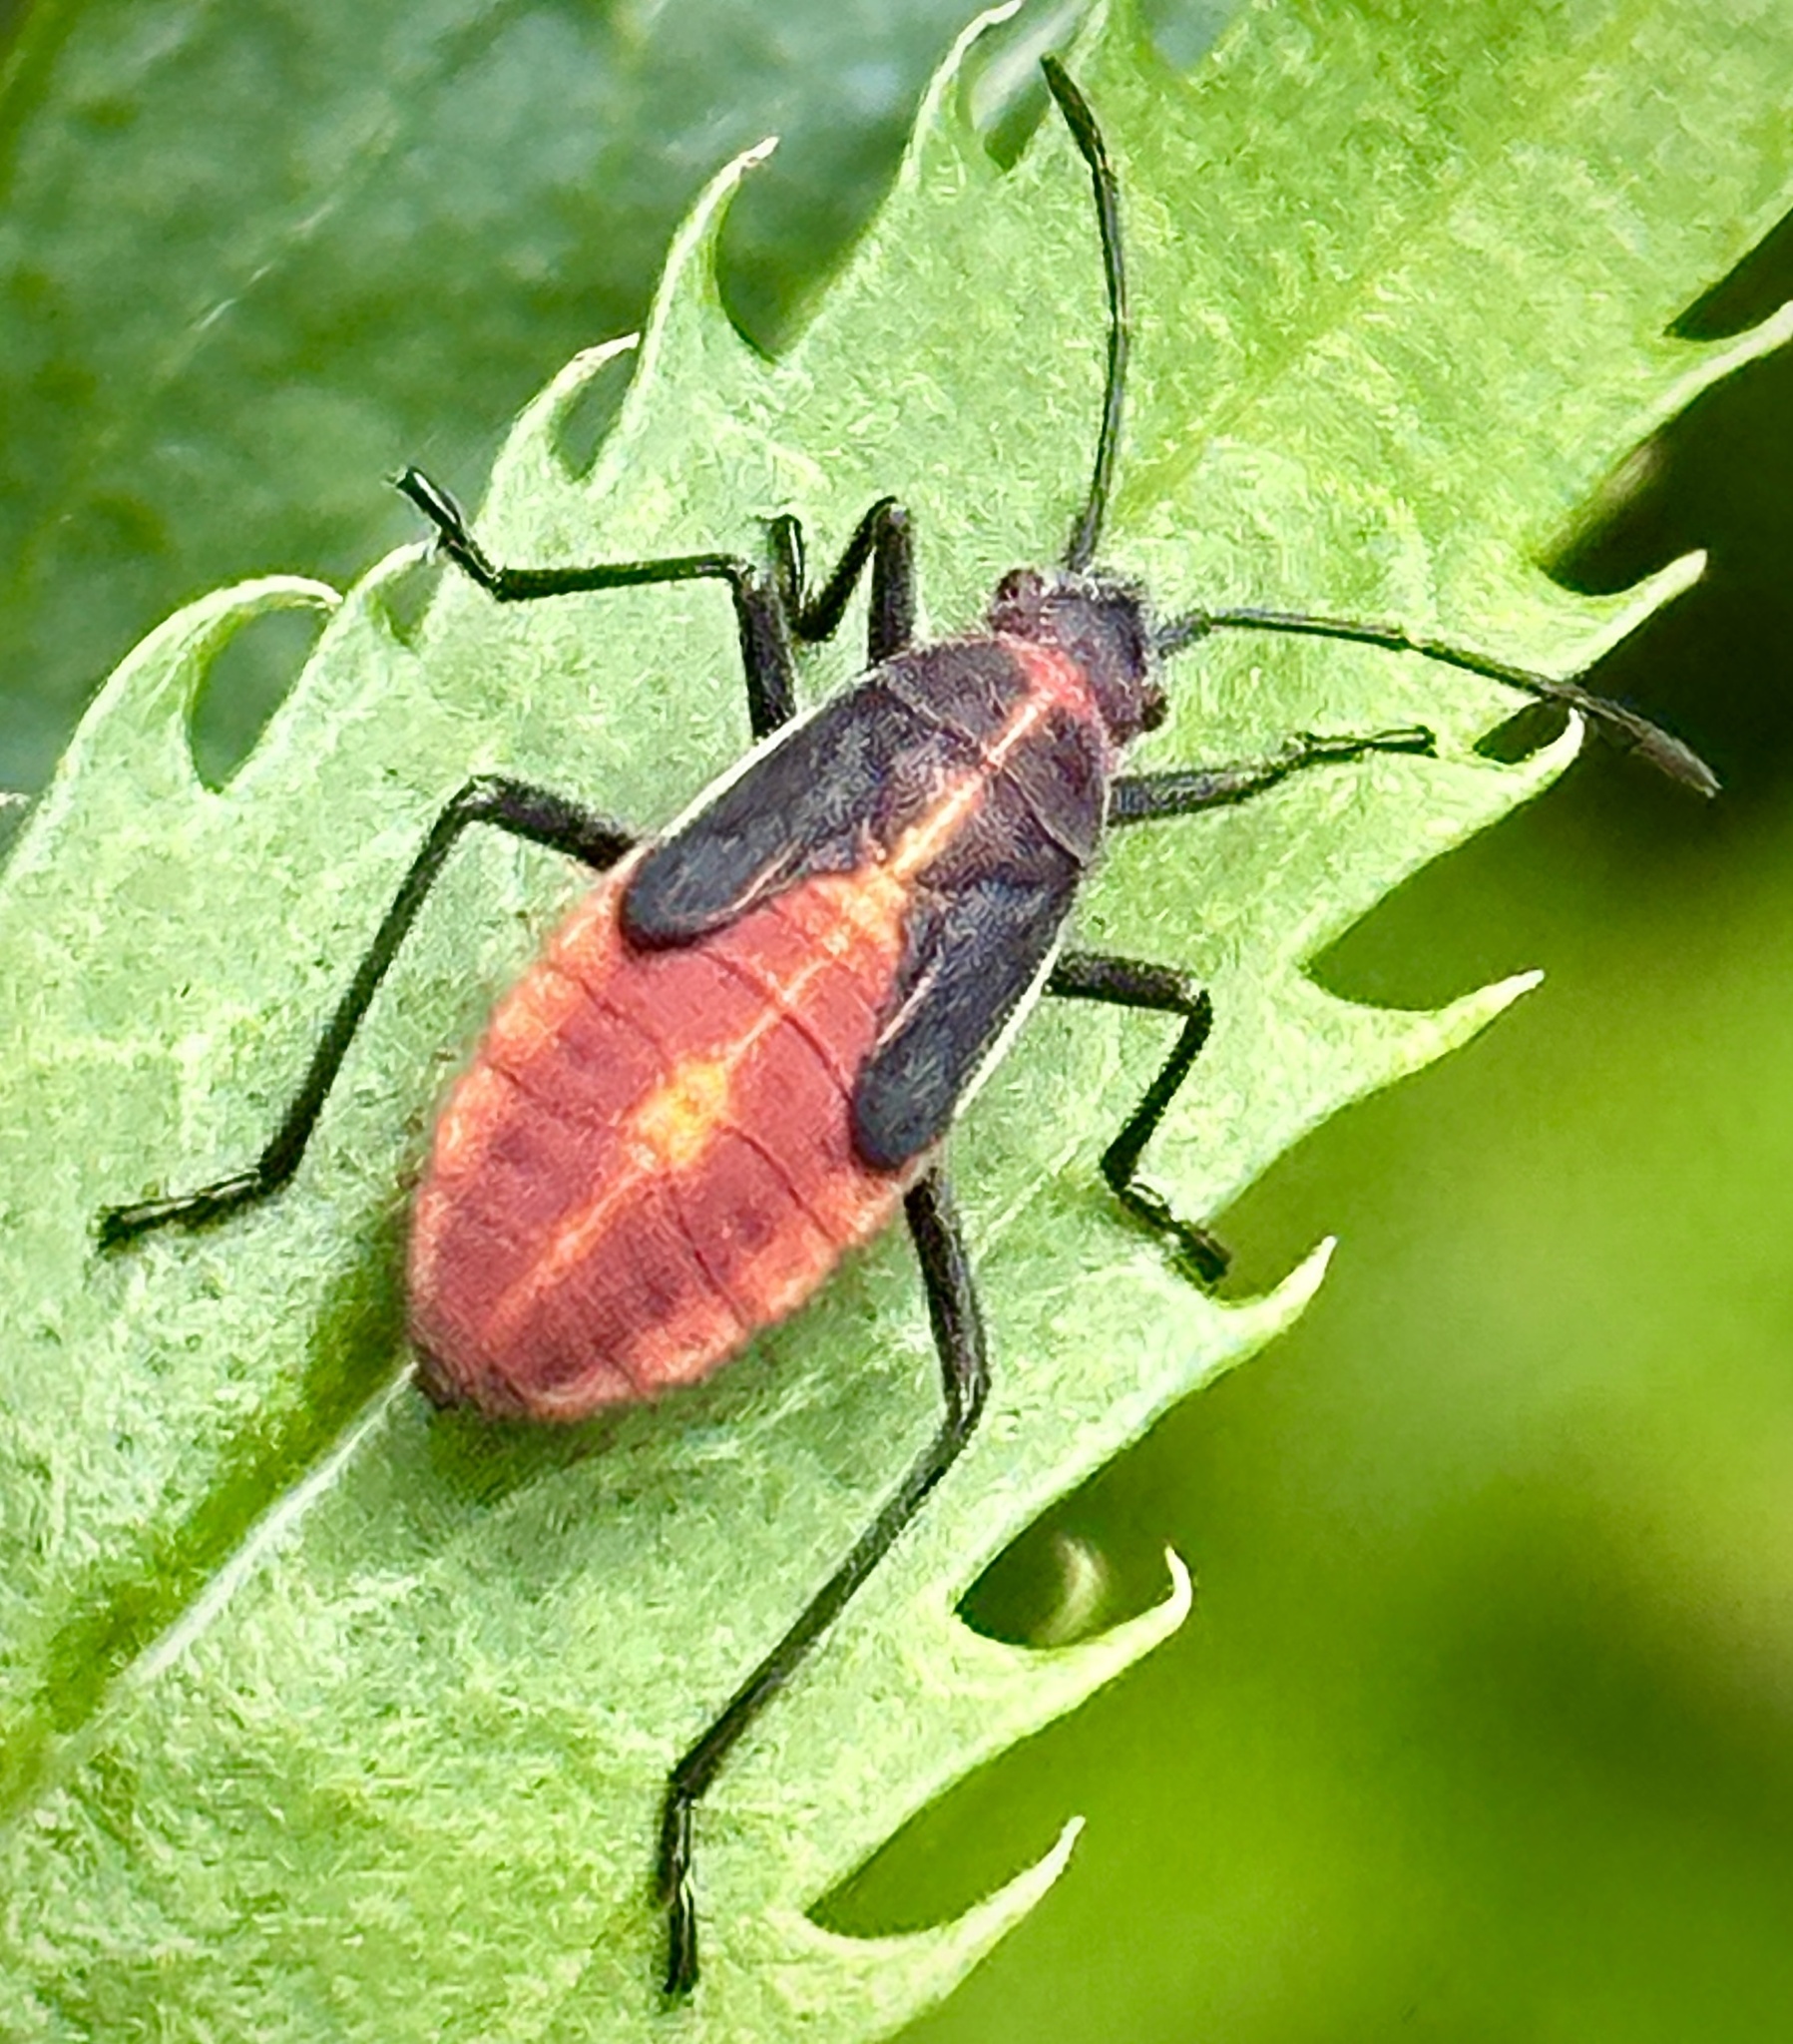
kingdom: Animalia
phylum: Arthropoda
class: Insecta
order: Hemiptera
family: Rhopalidae
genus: Boisea
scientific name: Boisea trivittata
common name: Boxelder bug
